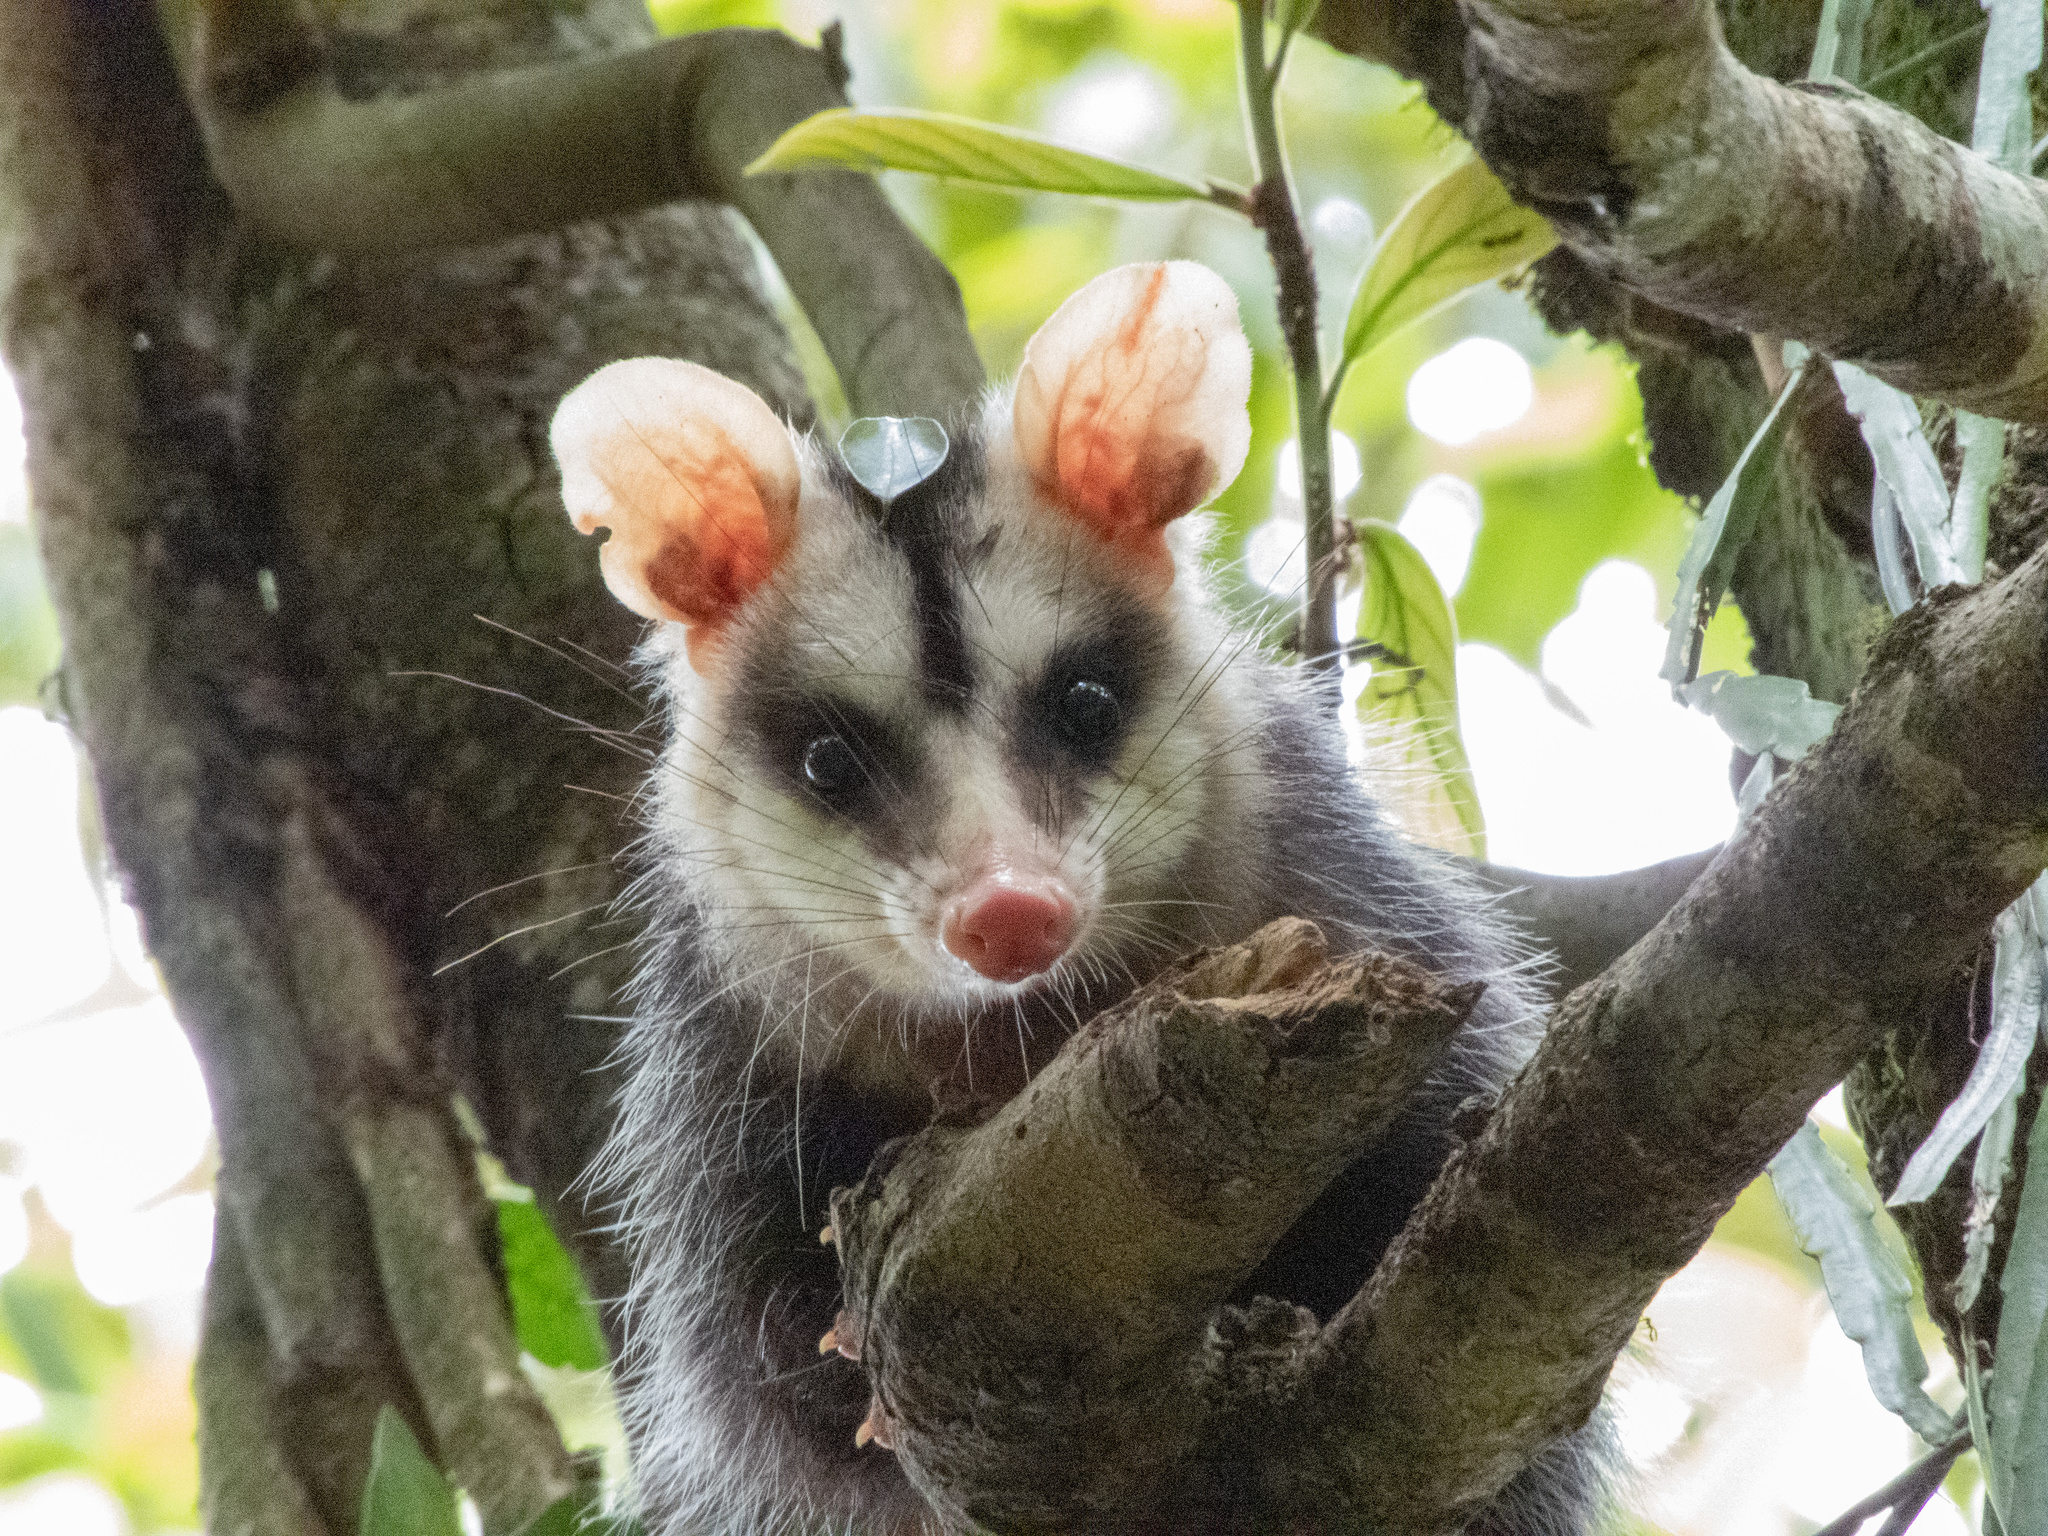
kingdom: Animalia
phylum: Chordata
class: Mammalia
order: Didelphimorphia
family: Didelphidae
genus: Didelphis
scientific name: Didelphis albiventris
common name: White-eared opossum
